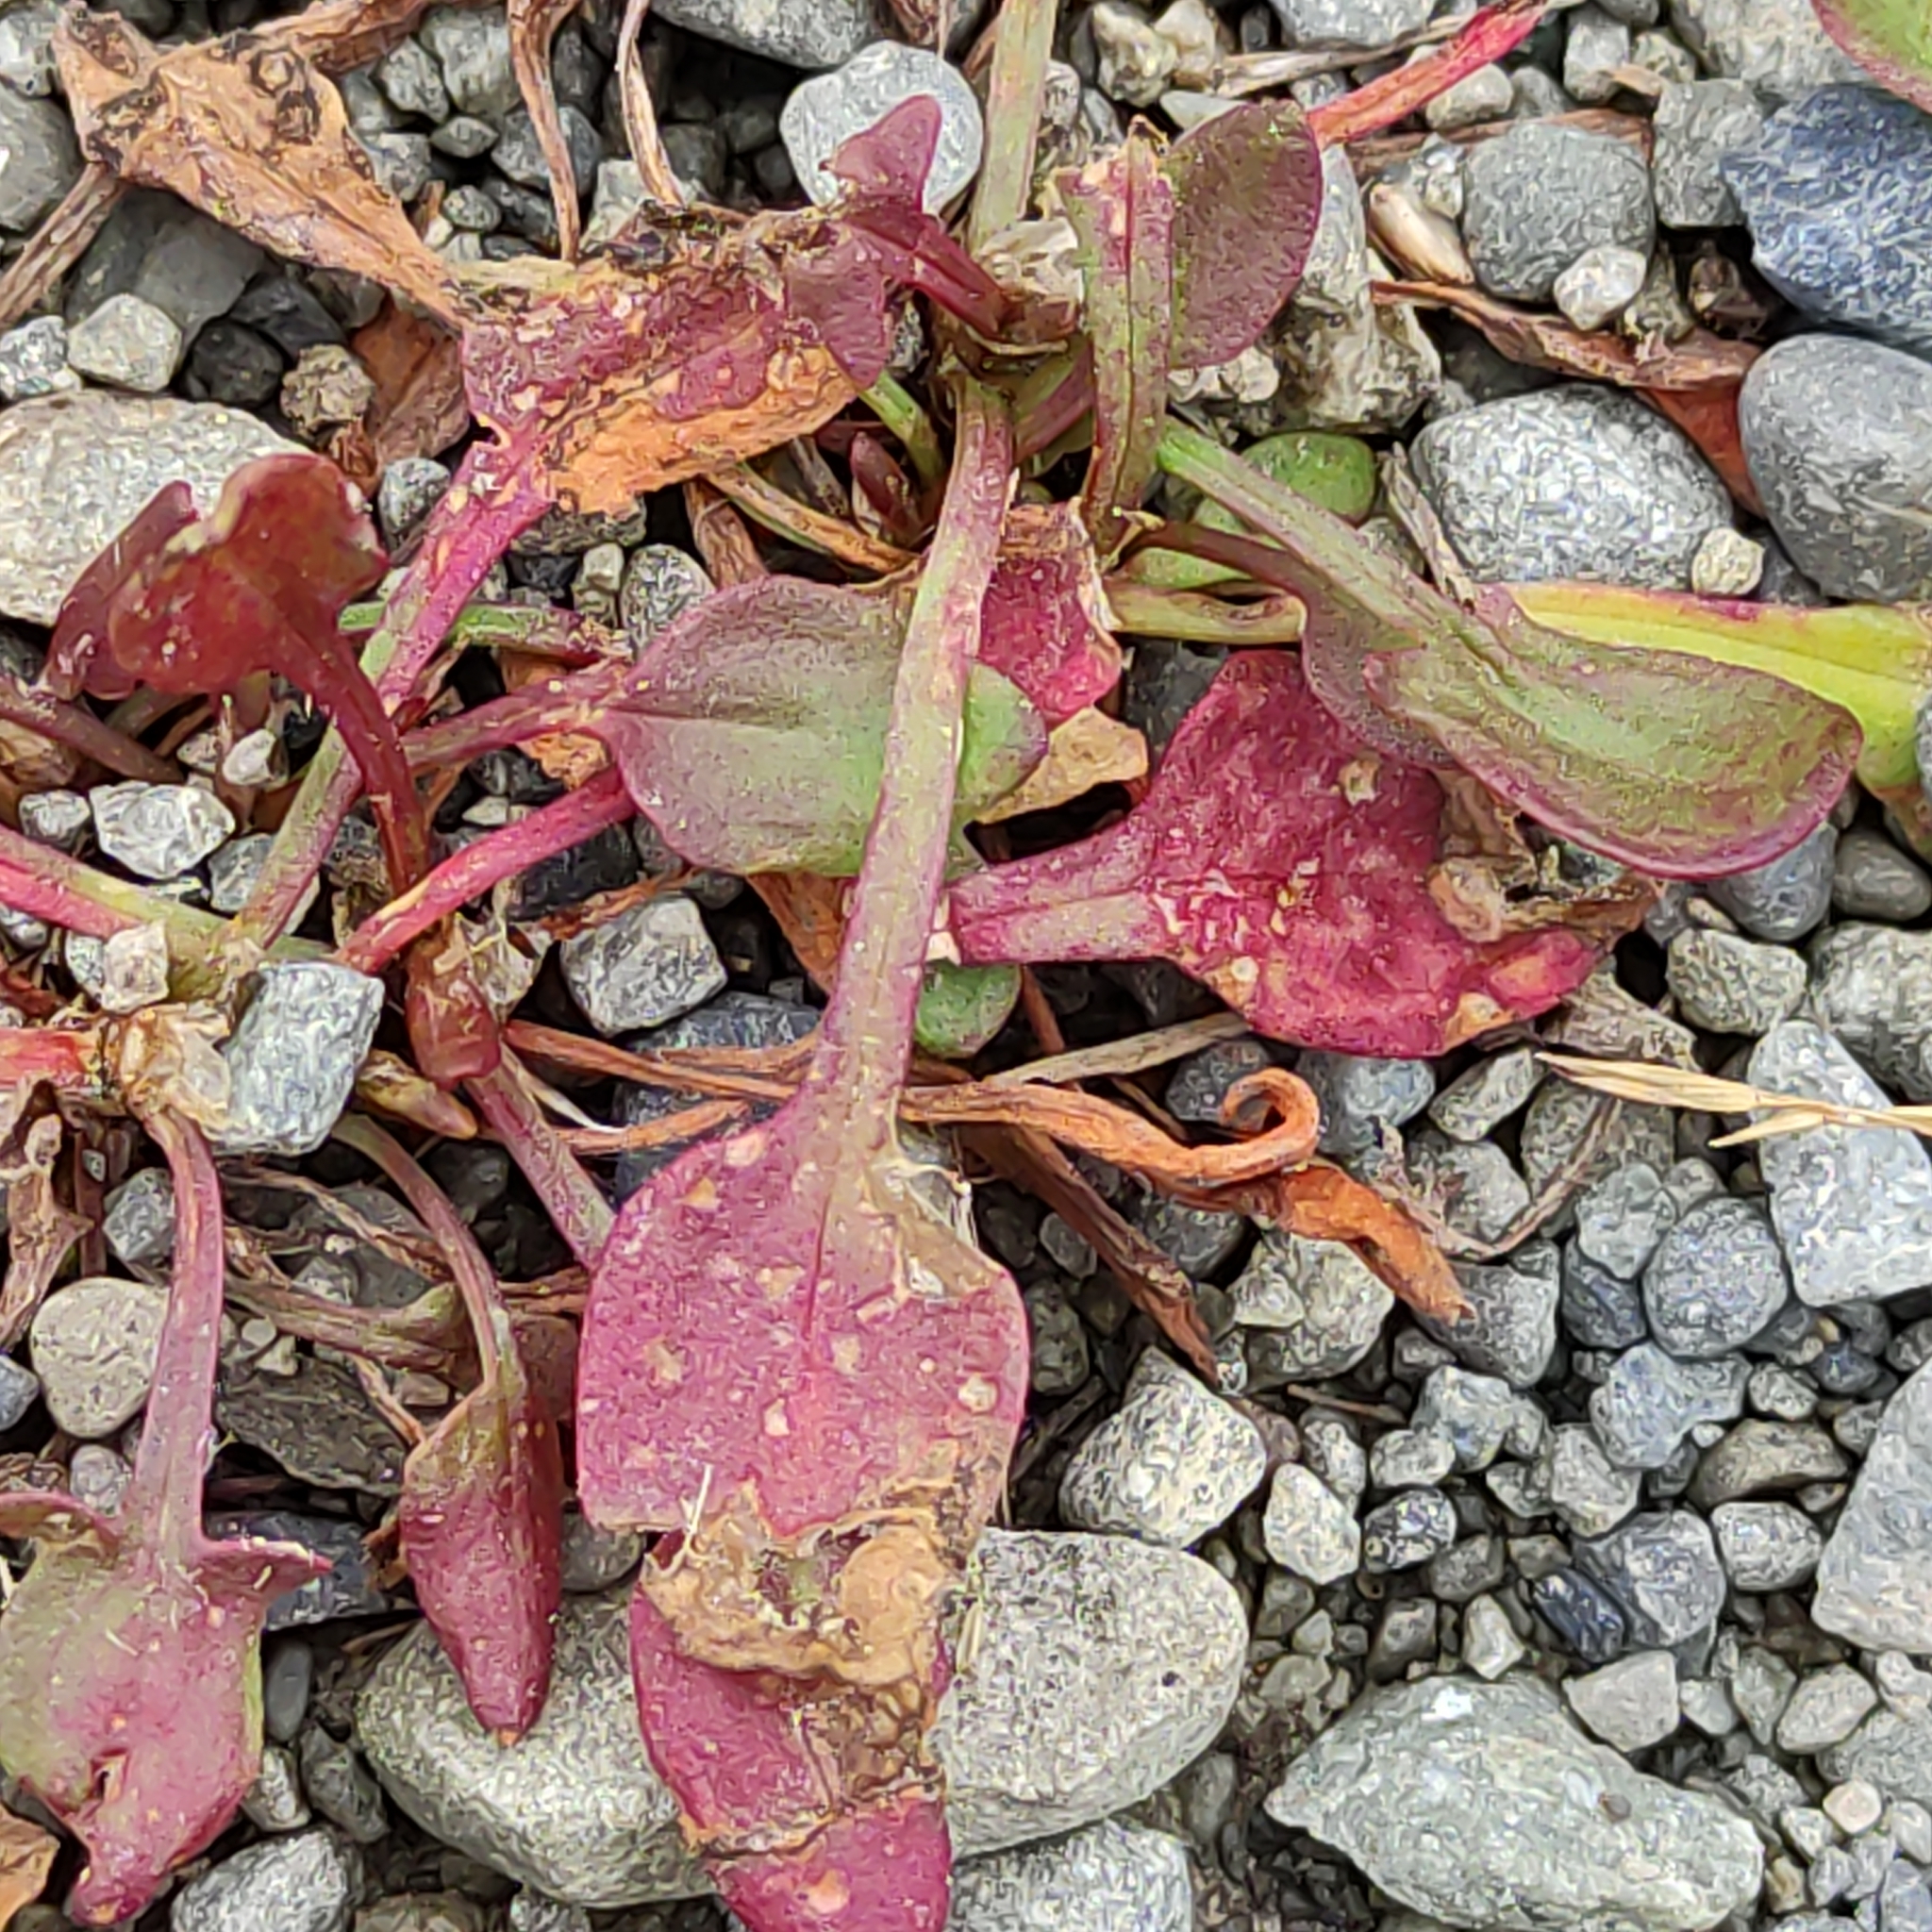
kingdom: Plantae
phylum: Tracheophyta
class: Magnoliopsida
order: Caryophyllales
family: Polygonaceae
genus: Rumex
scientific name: Rumex acetosella
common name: Common sheep sorrel
